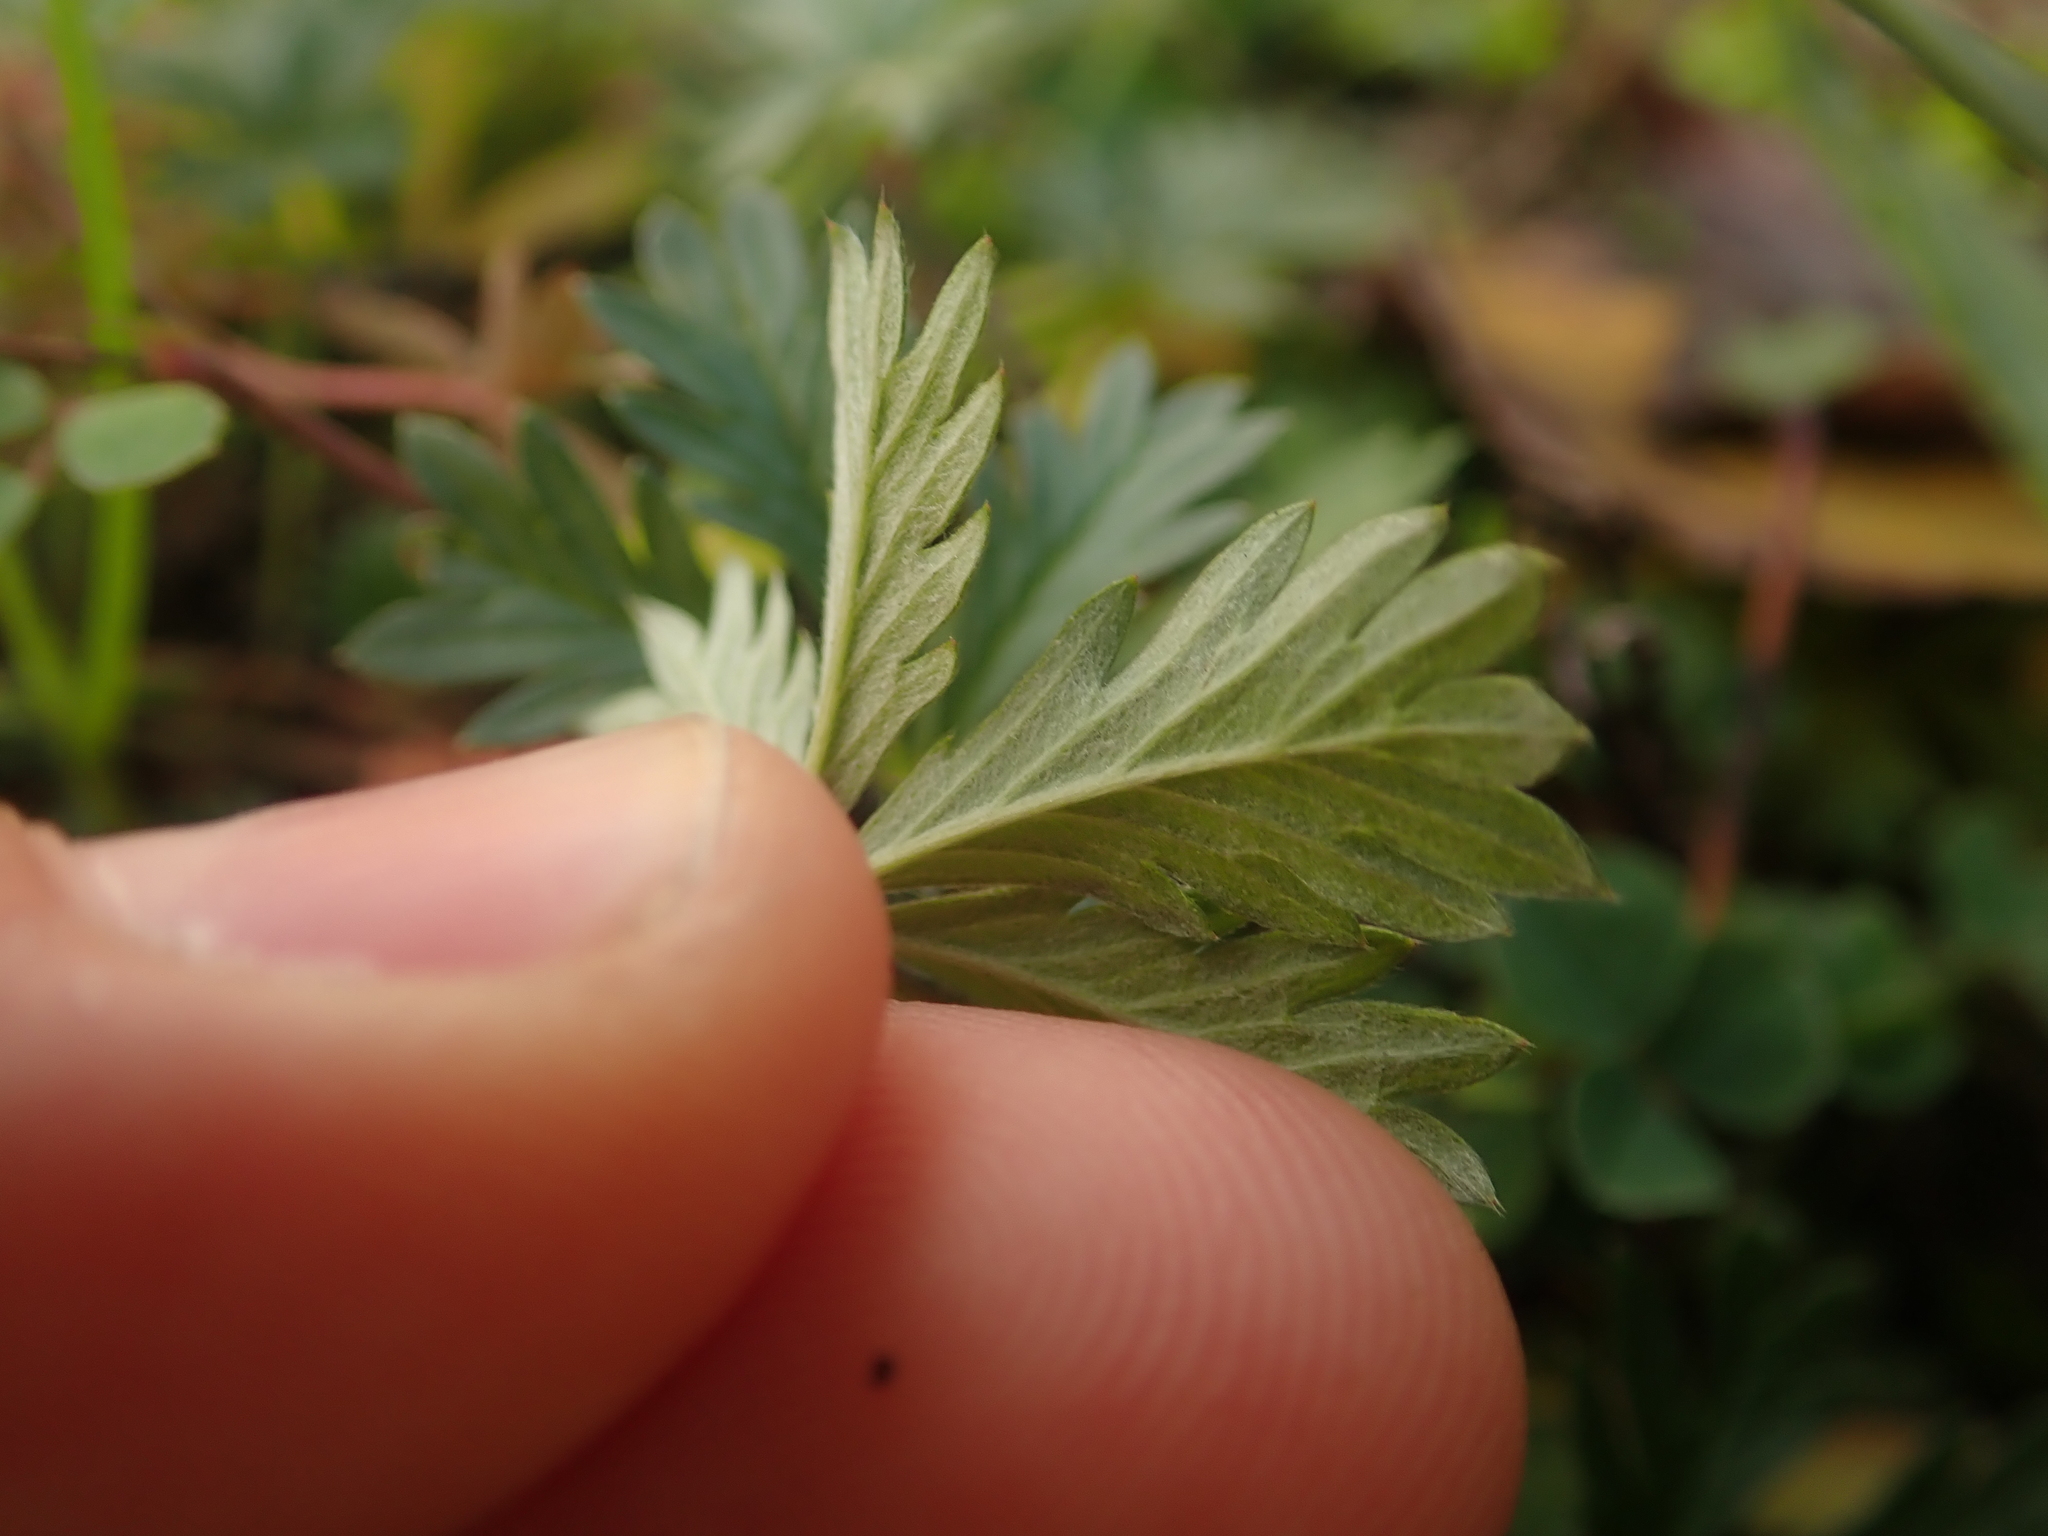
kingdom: Plantae
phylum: Tracheophyta
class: Magnoliopsida
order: Rosales
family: Rosaceae
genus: Potentilla
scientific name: Potentilla argentea
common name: Hoary cinquefoil
